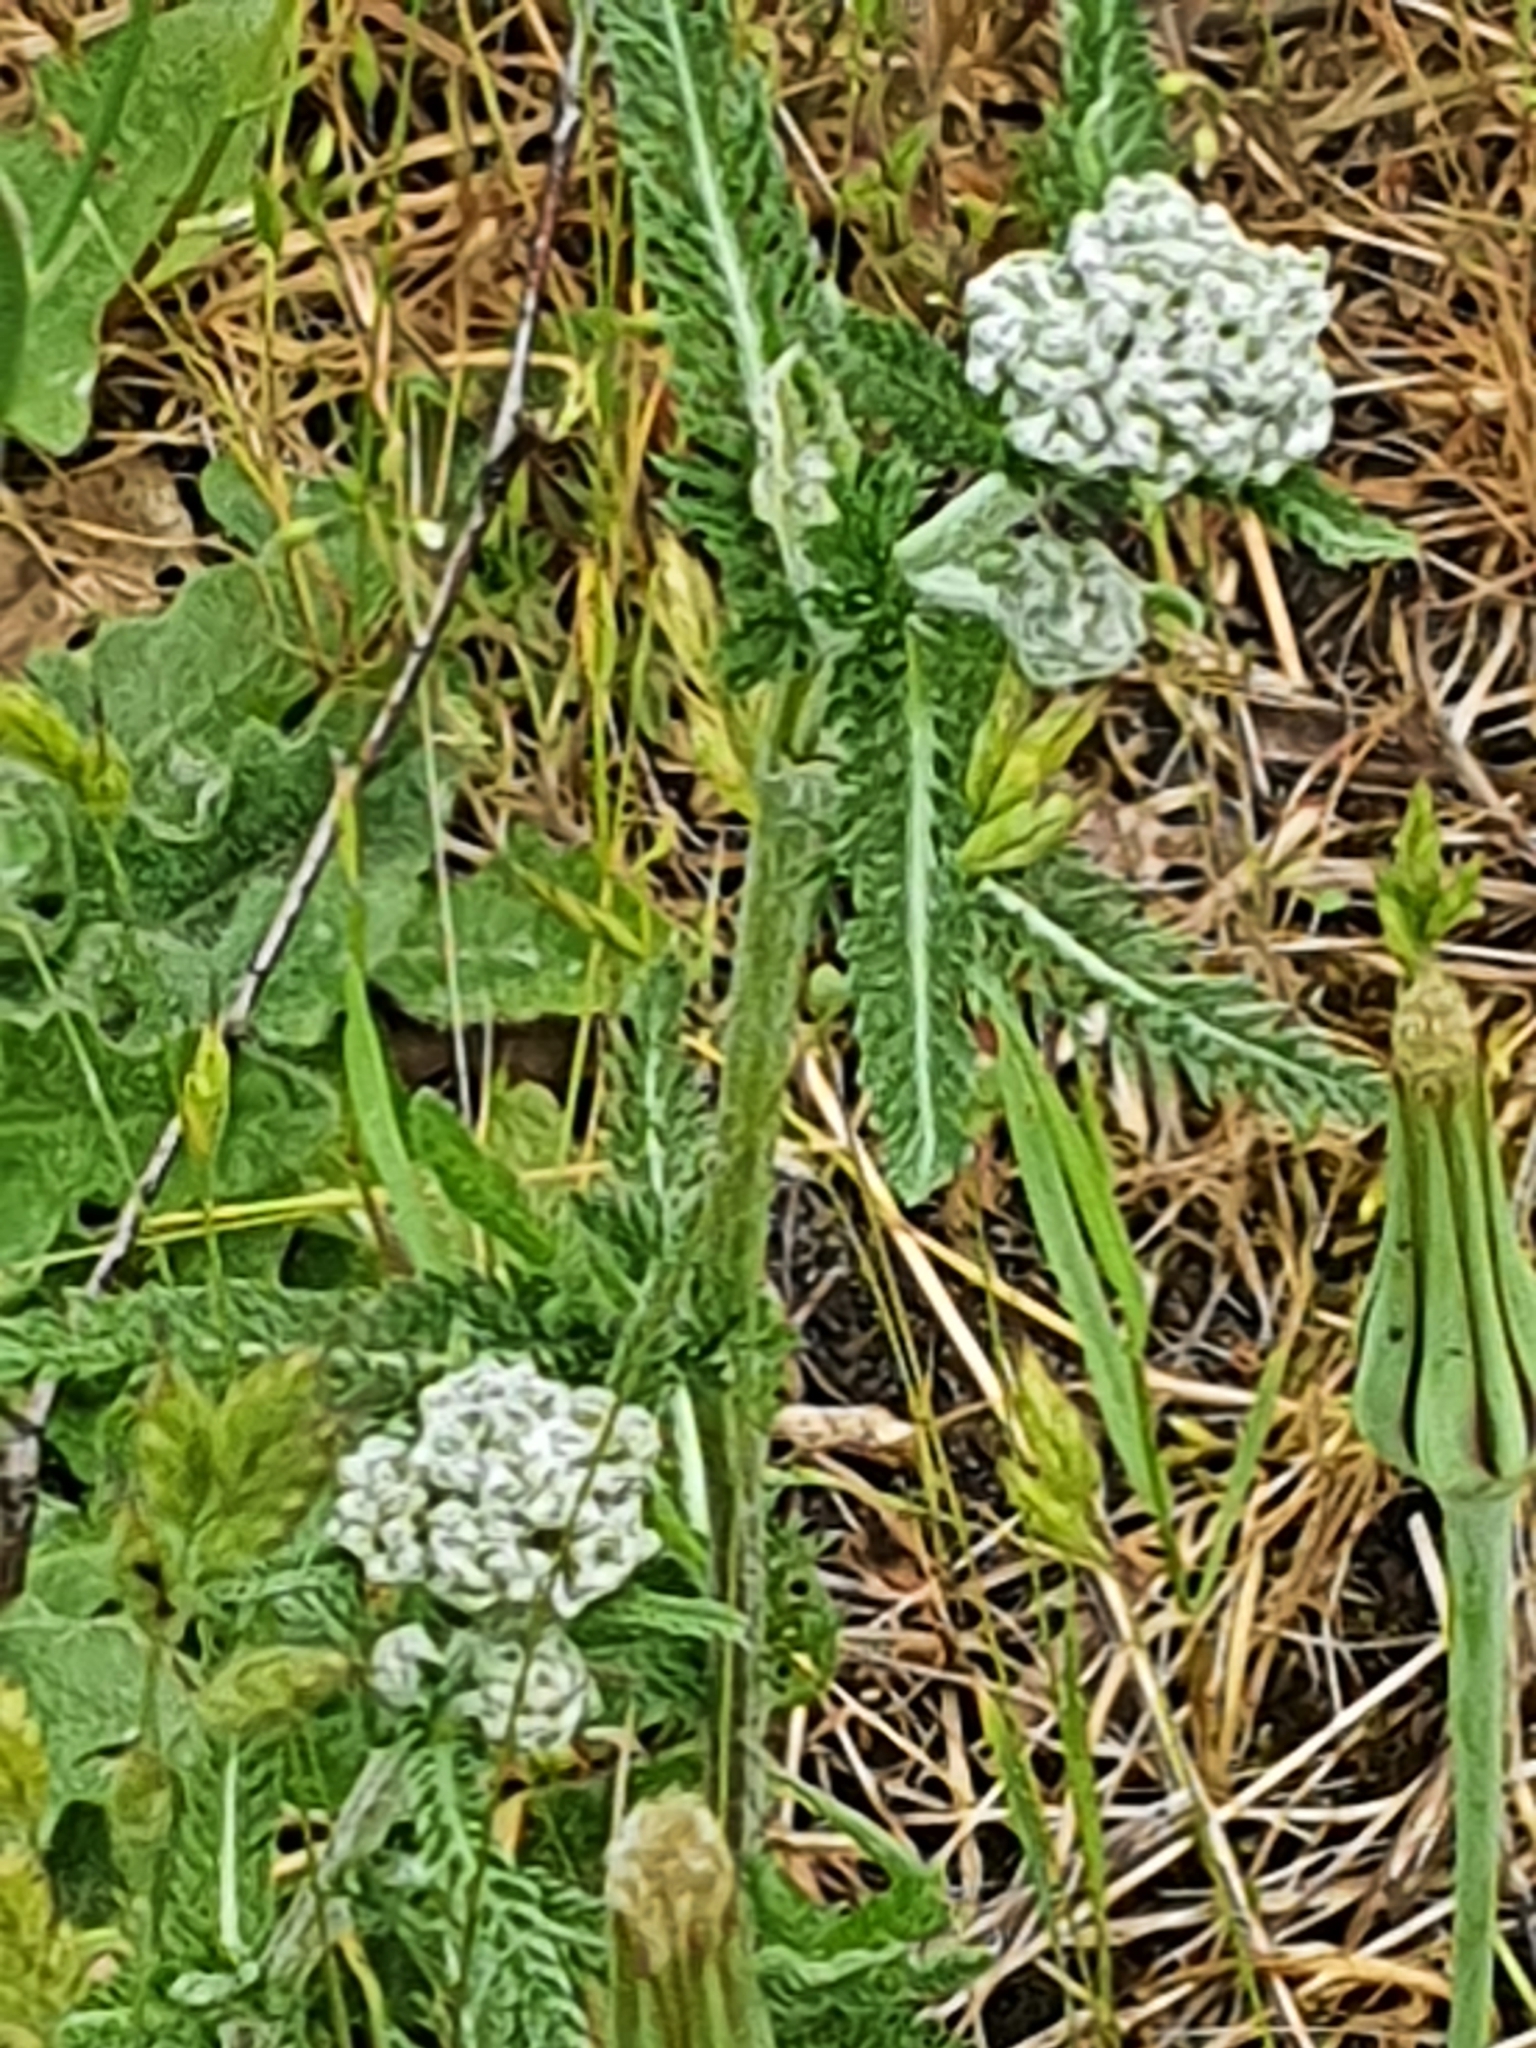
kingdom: Plantae
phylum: Tracheophyta
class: Magnoliopsida
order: Asterales
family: Asteraceae
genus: Achillea
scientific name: Achillea millefolium
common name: Yarrow
